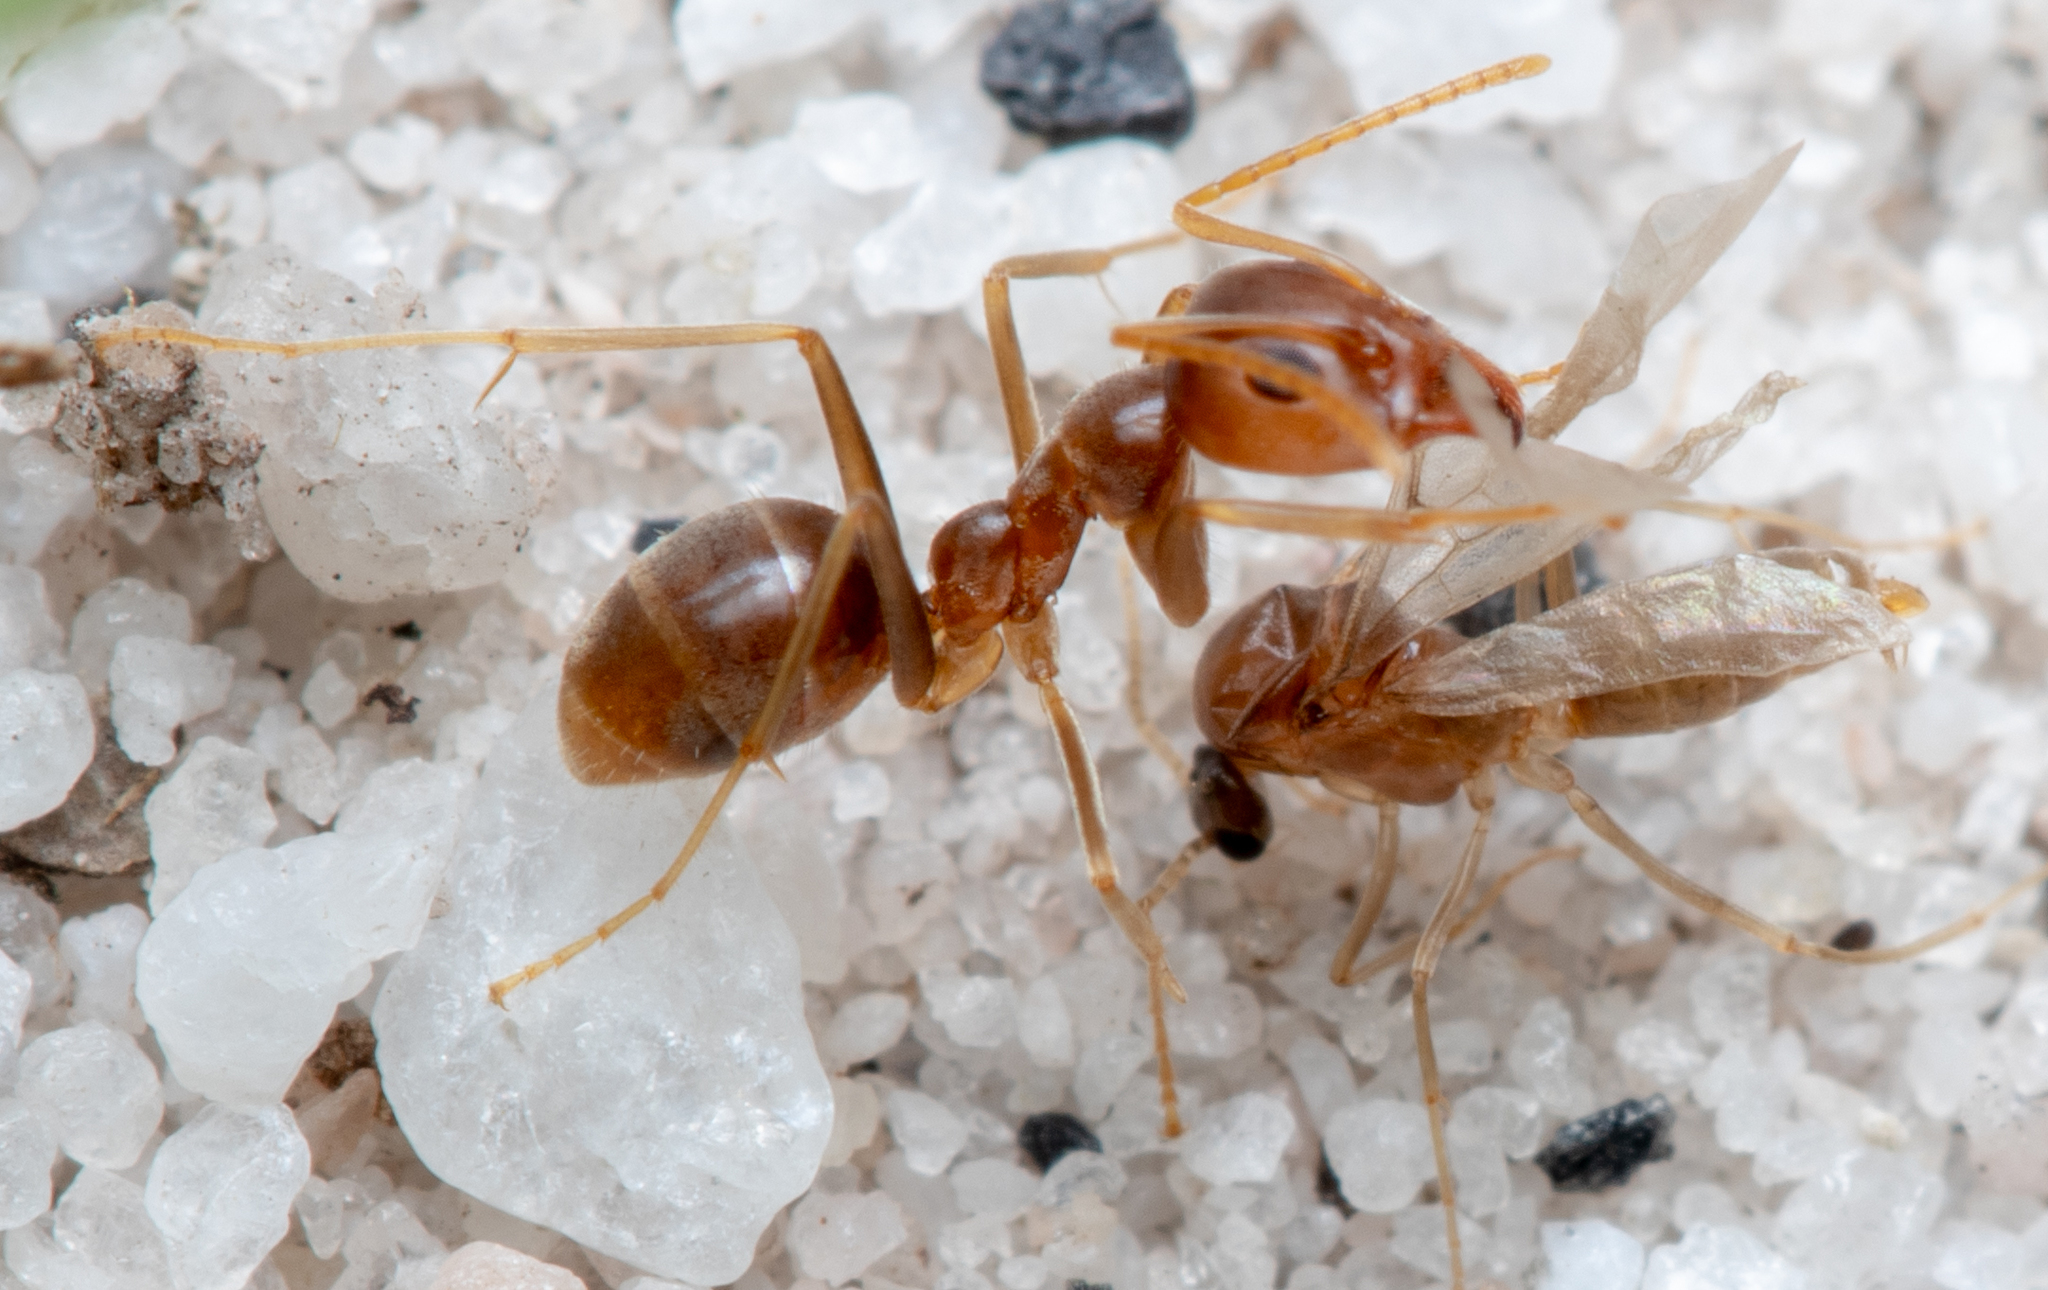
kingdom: Animalia
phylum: Arthropoda
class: Insecta
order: Hymenoptera
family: Formicidae
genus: Iridomyrmex
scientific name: Iridomyrmex pallidus
